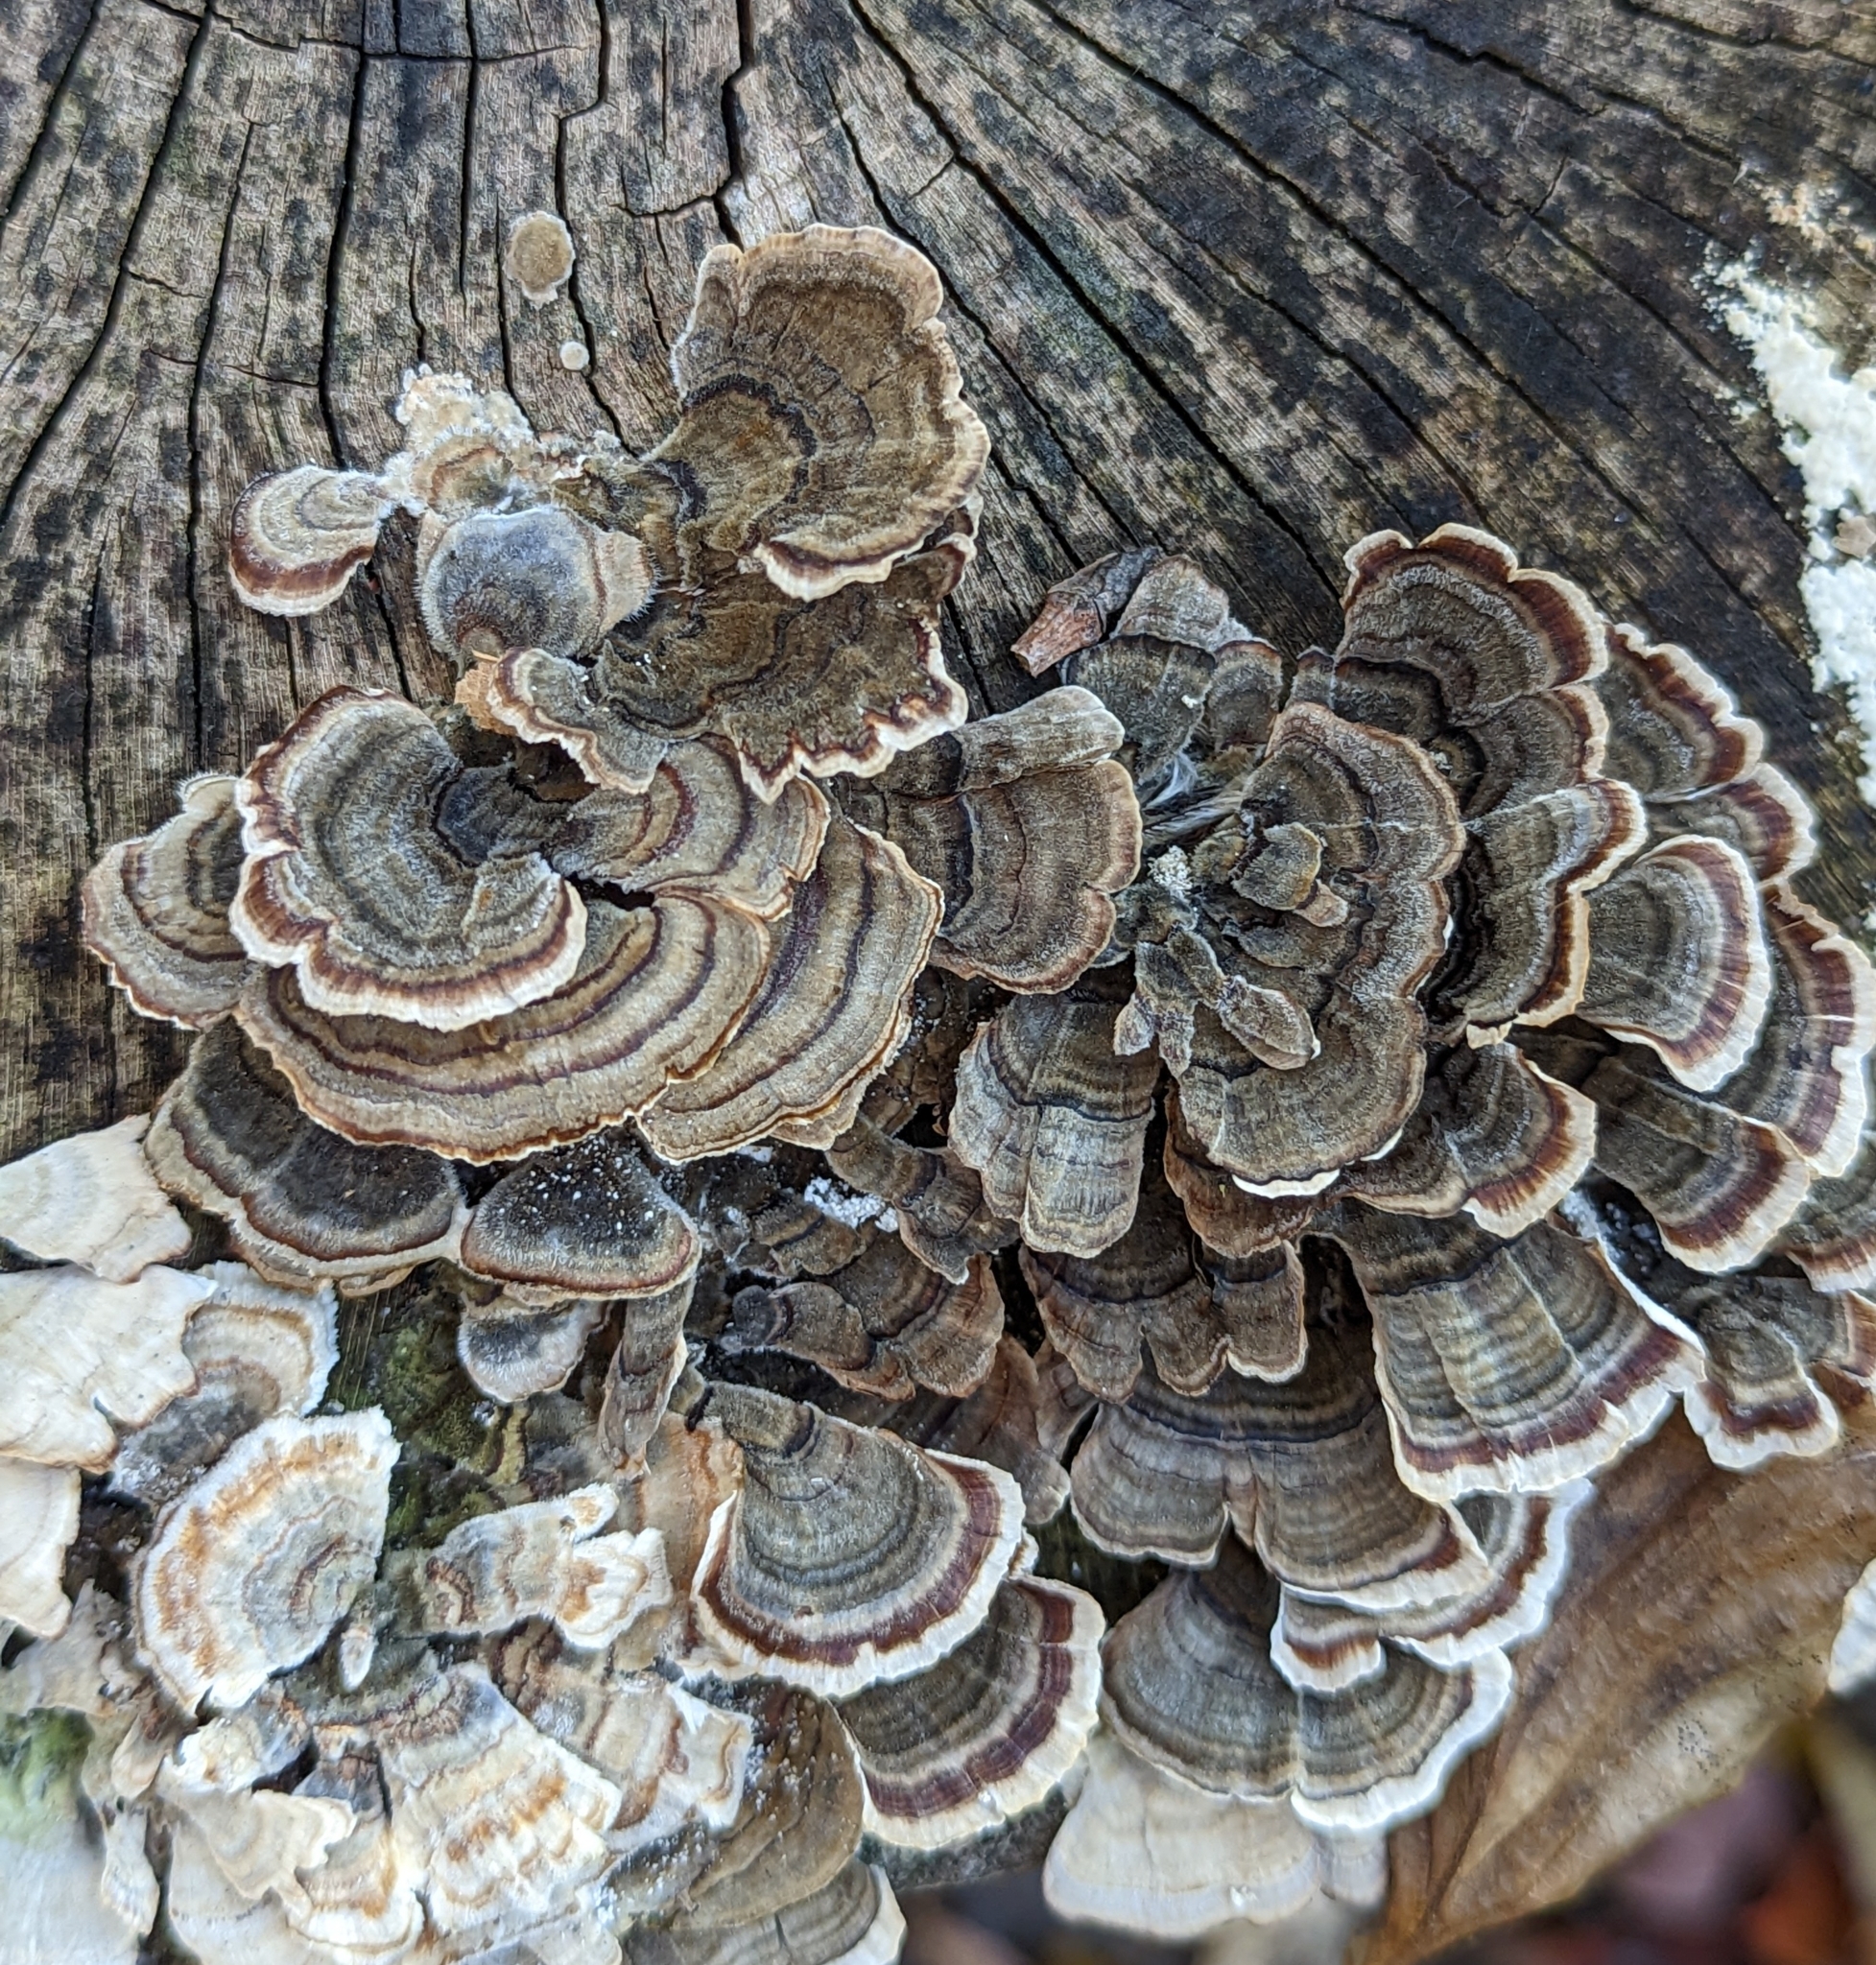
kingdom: Fungi
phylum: Basidiomycota
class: Agaricomycetes
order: Polyporales
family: Polyporaceae
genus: Trametes
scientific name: Trametes versicolor
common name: Turkeytail
